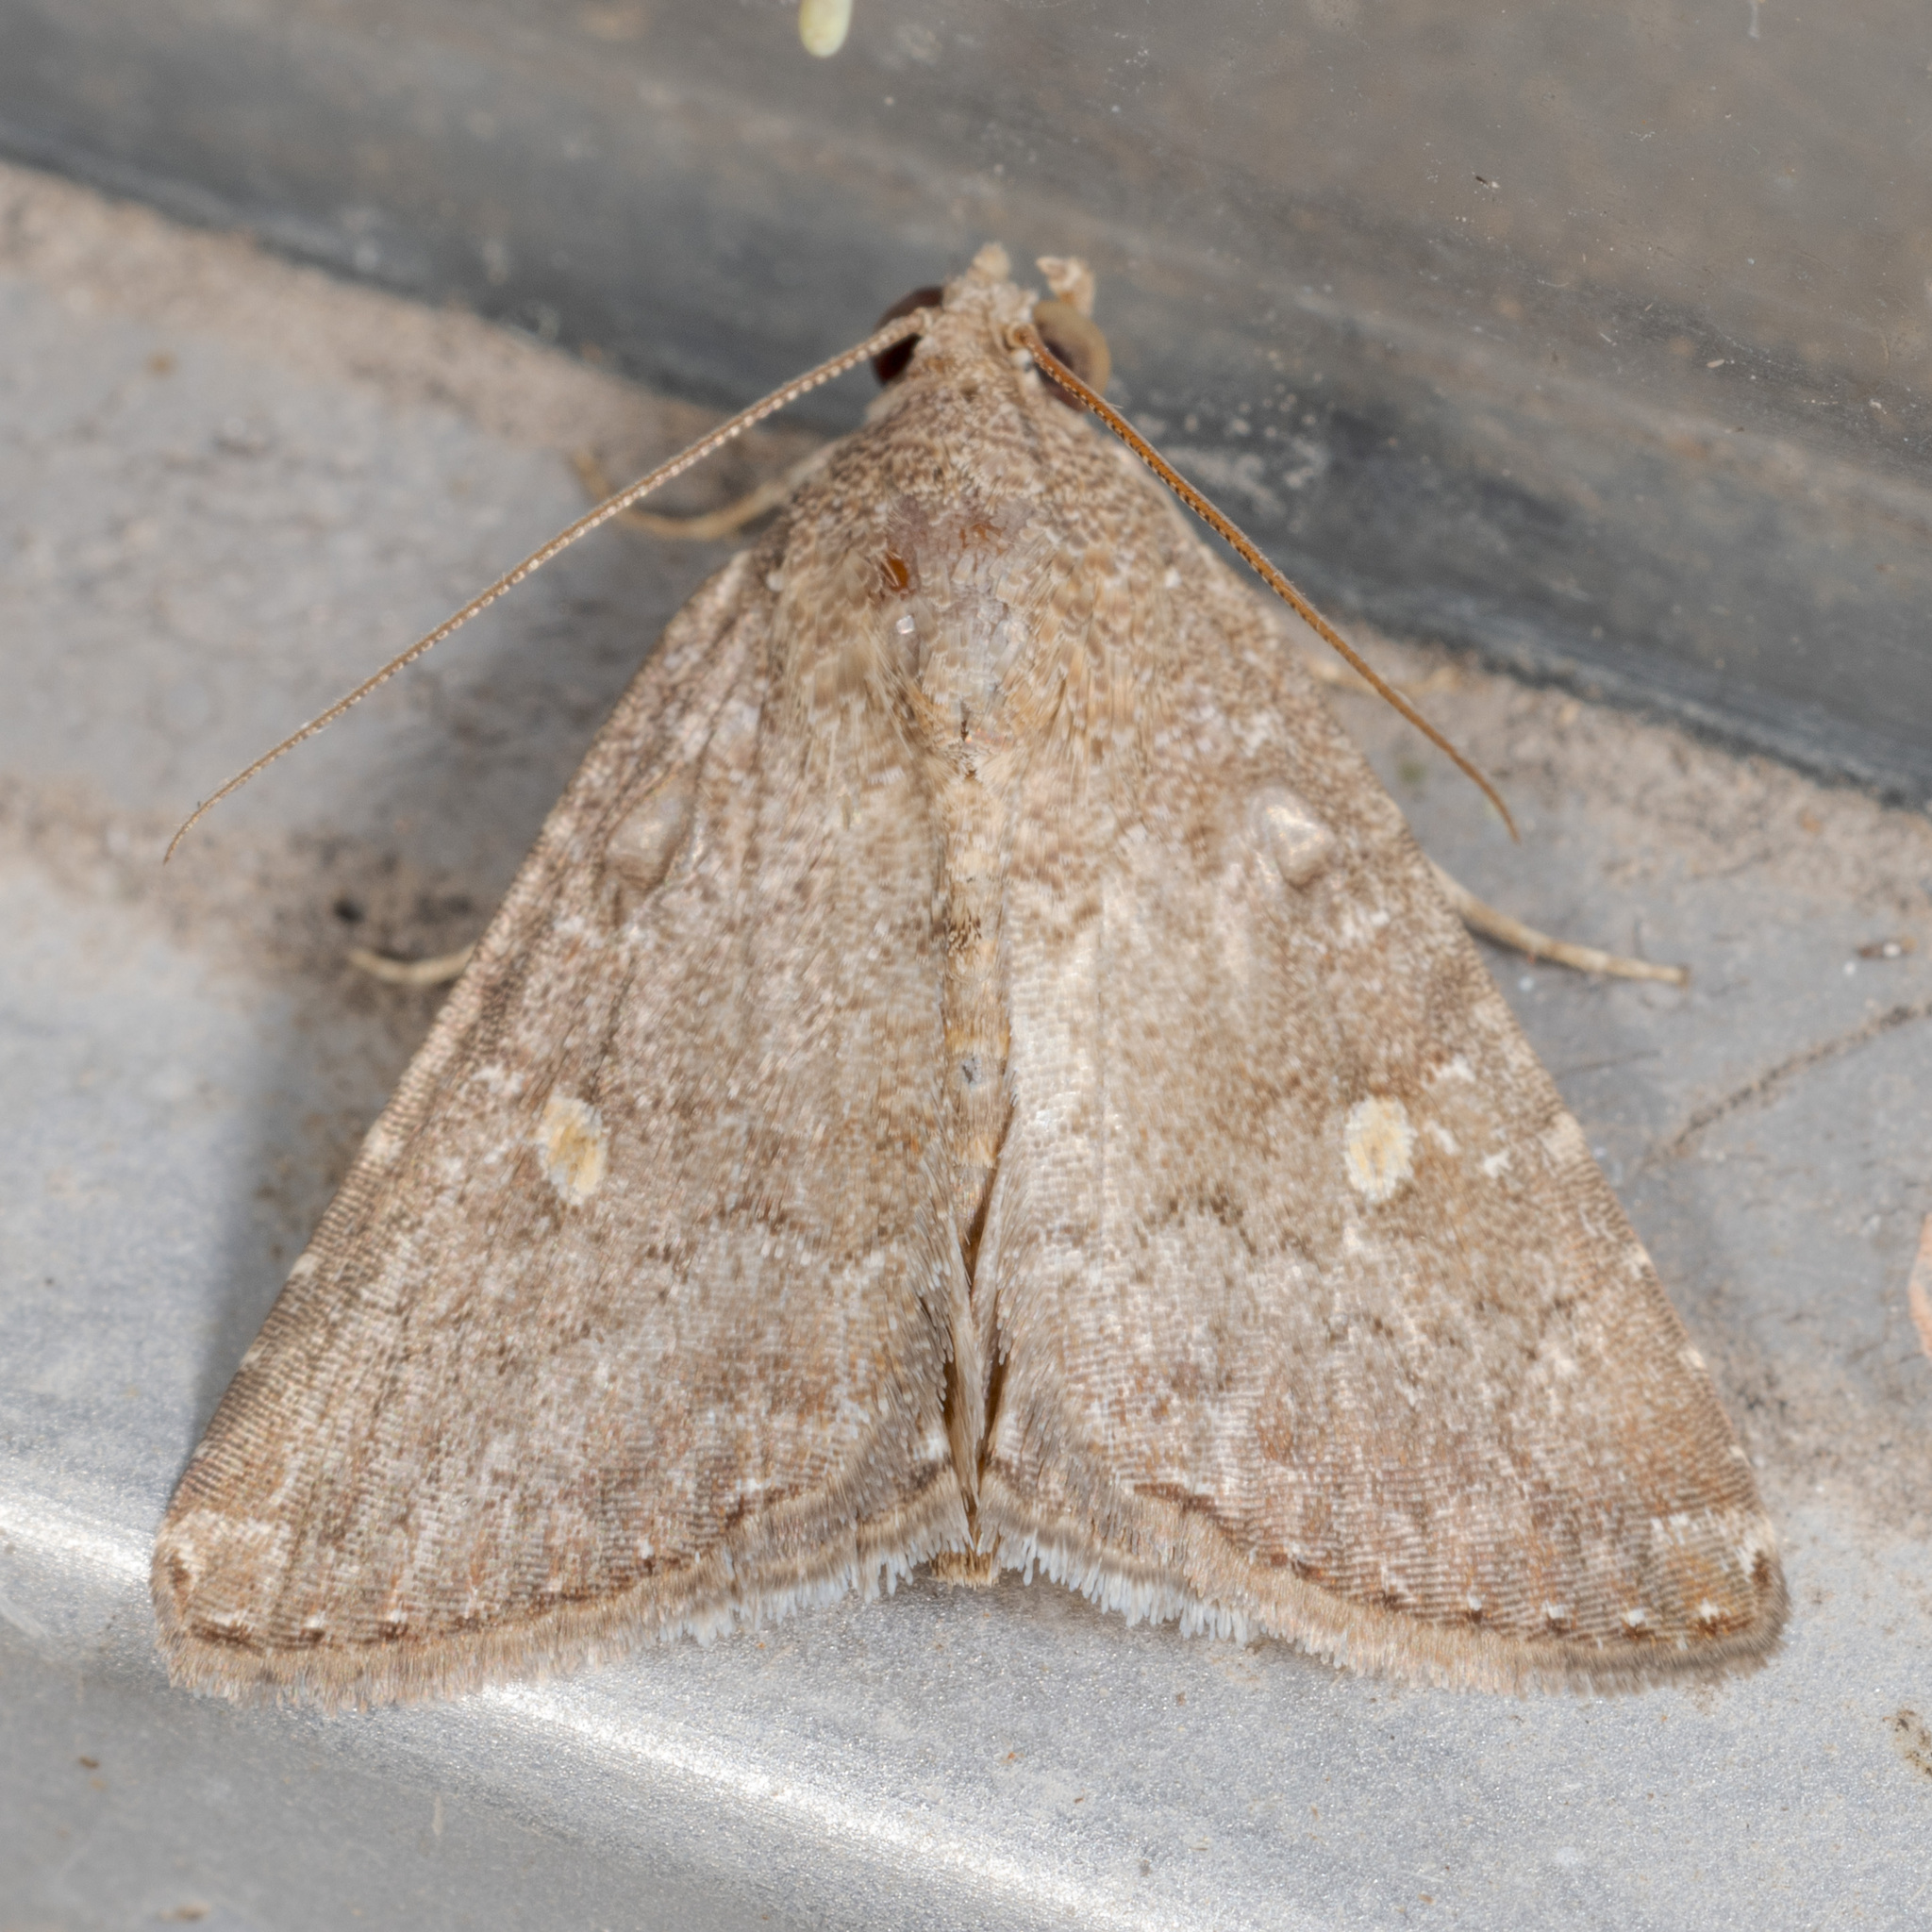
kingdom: Animalia
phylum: Arthropoda
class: Insecta
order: Lepidoptera
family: Noctuidae
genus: Amyna
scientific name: Amyna stricta
